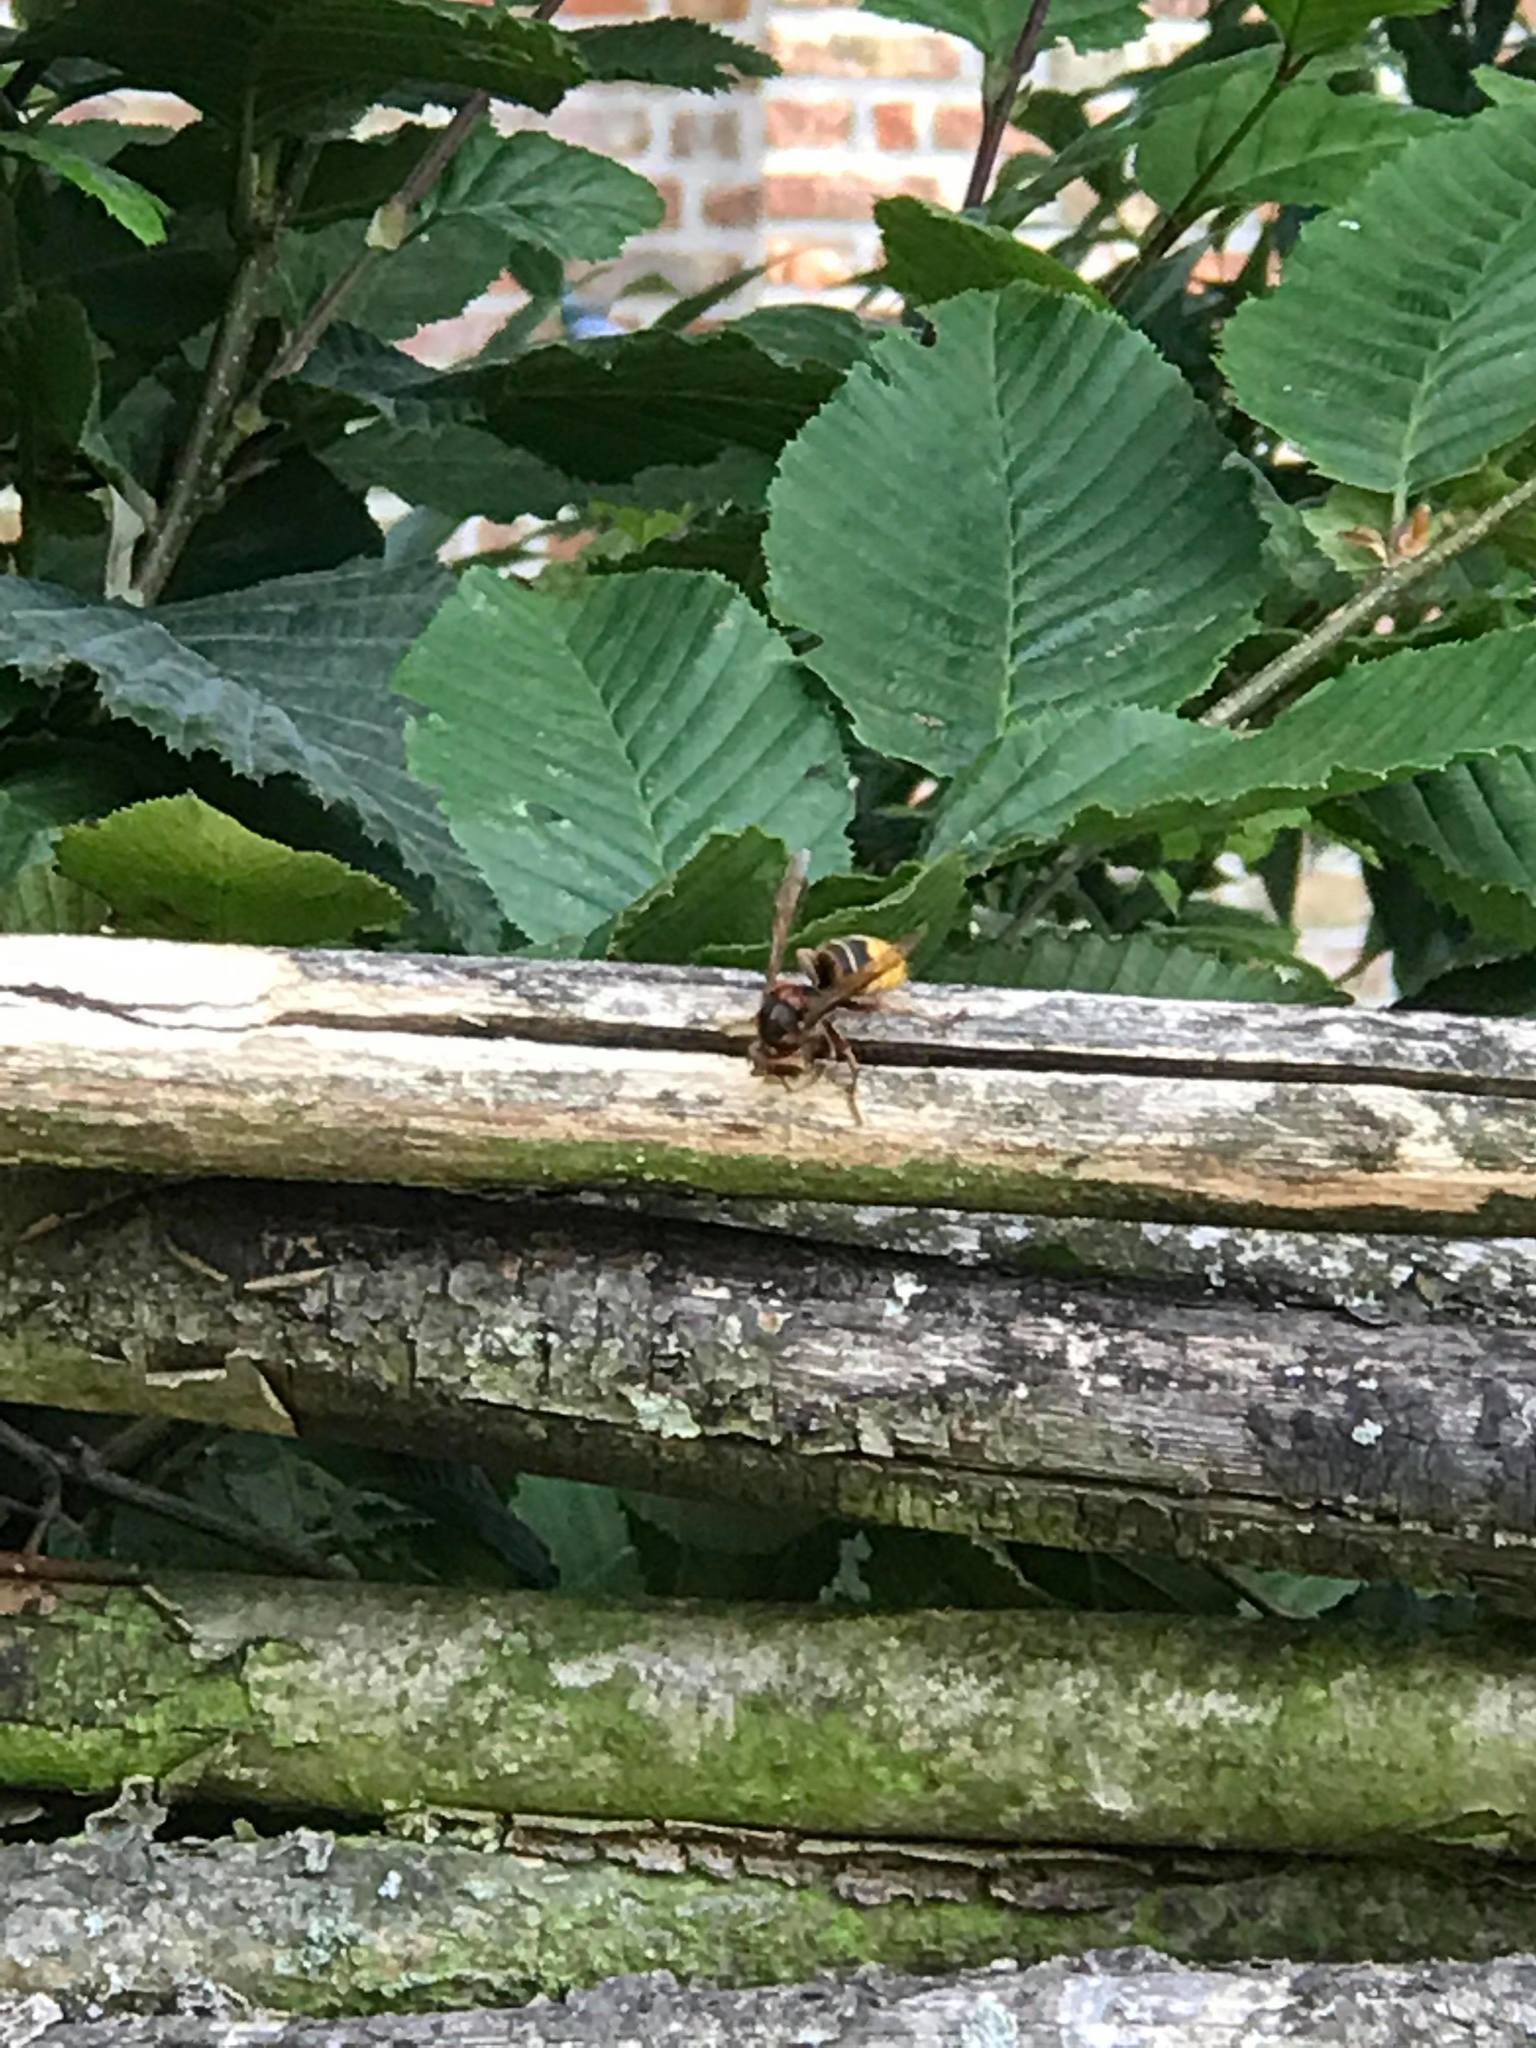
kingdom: Animalia
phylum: Arthropoda
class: Insecta
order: Hymenoptera
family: Vespidae
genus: Vespa
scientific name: Vespa crabro
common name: Hornet
